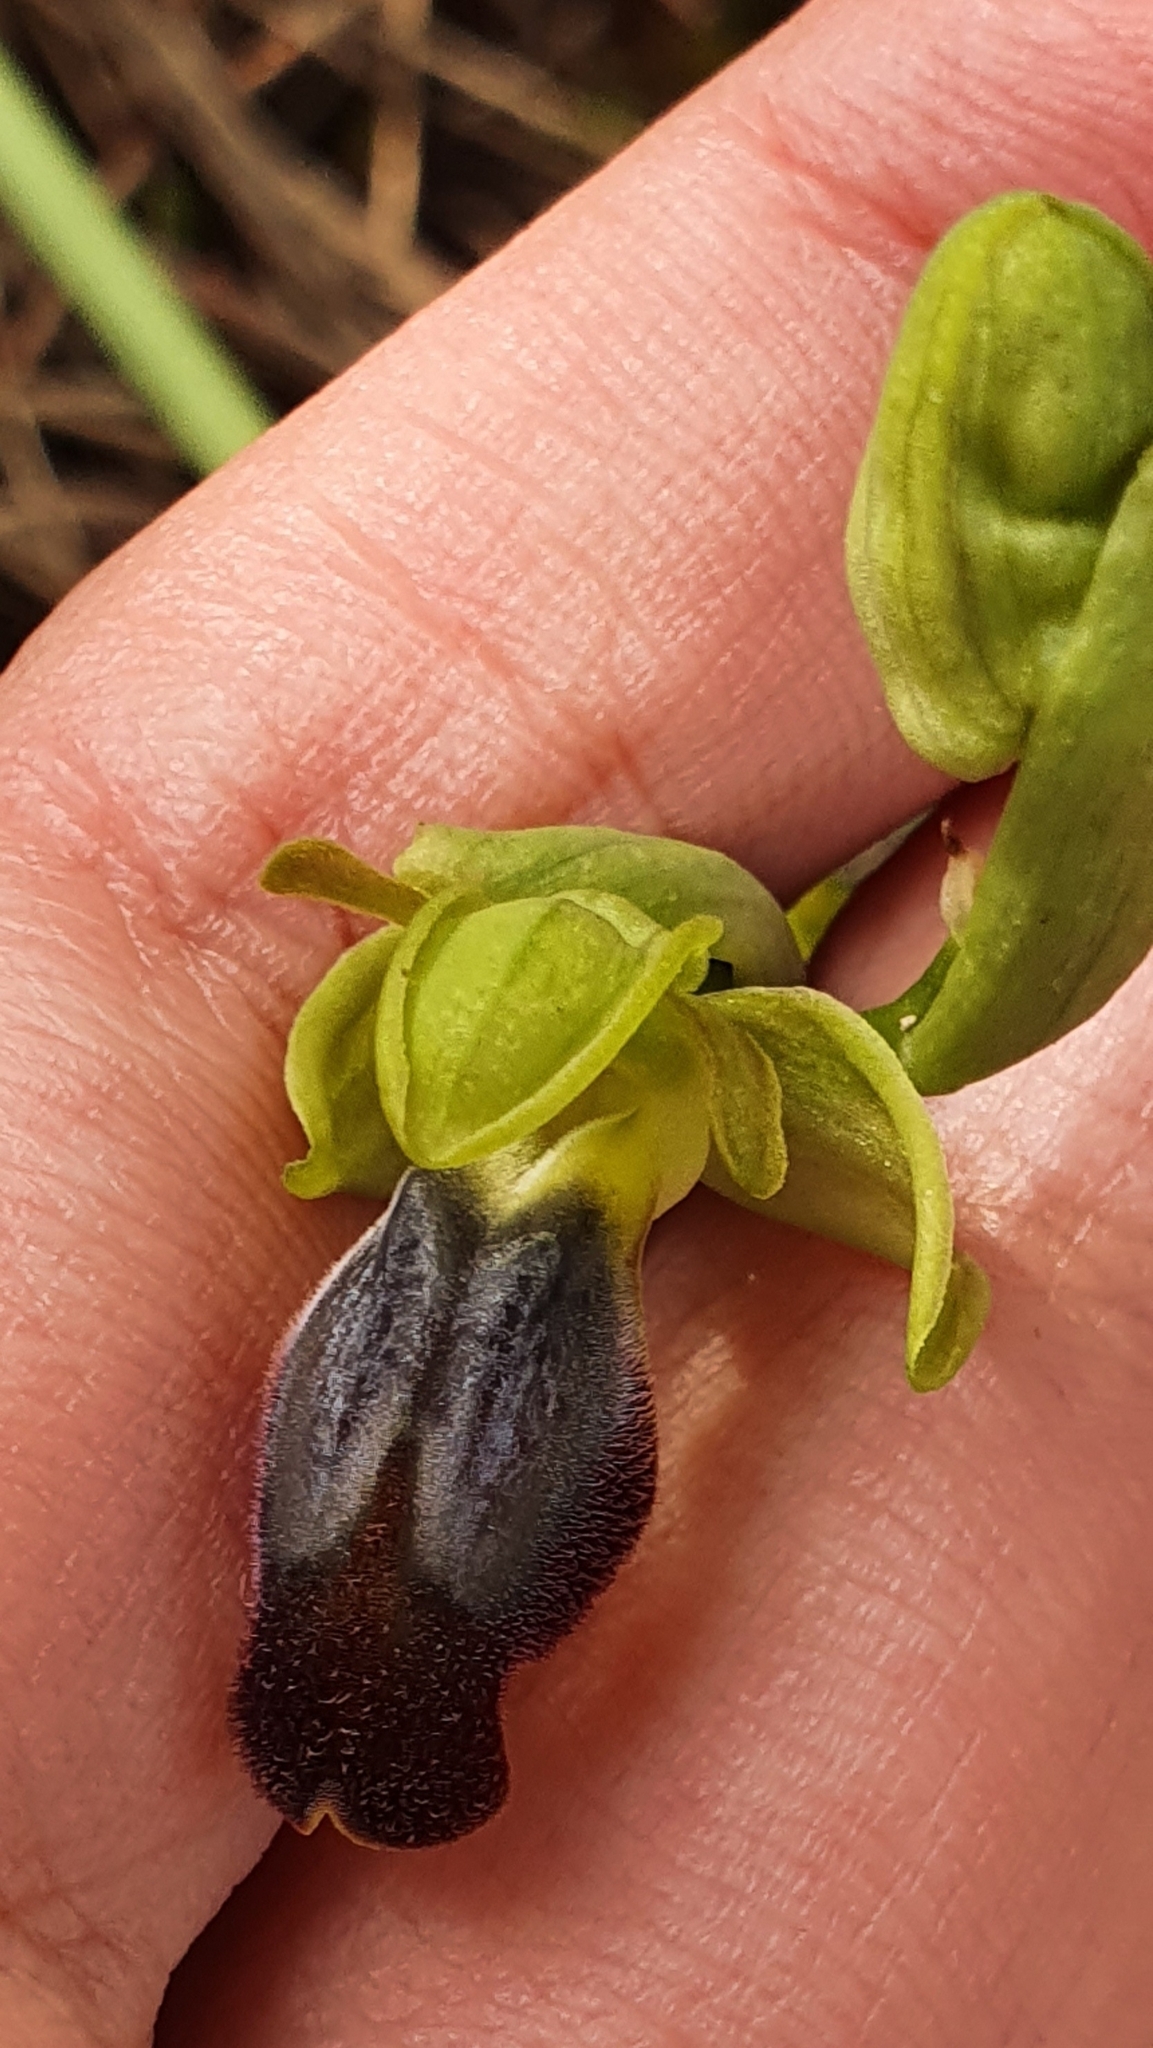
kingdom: Plantae
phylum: Tracheophyta
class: Liliopsida
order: Asparagales
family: Orchidaceae
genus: Ophrys
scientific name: Ophrys fusca
